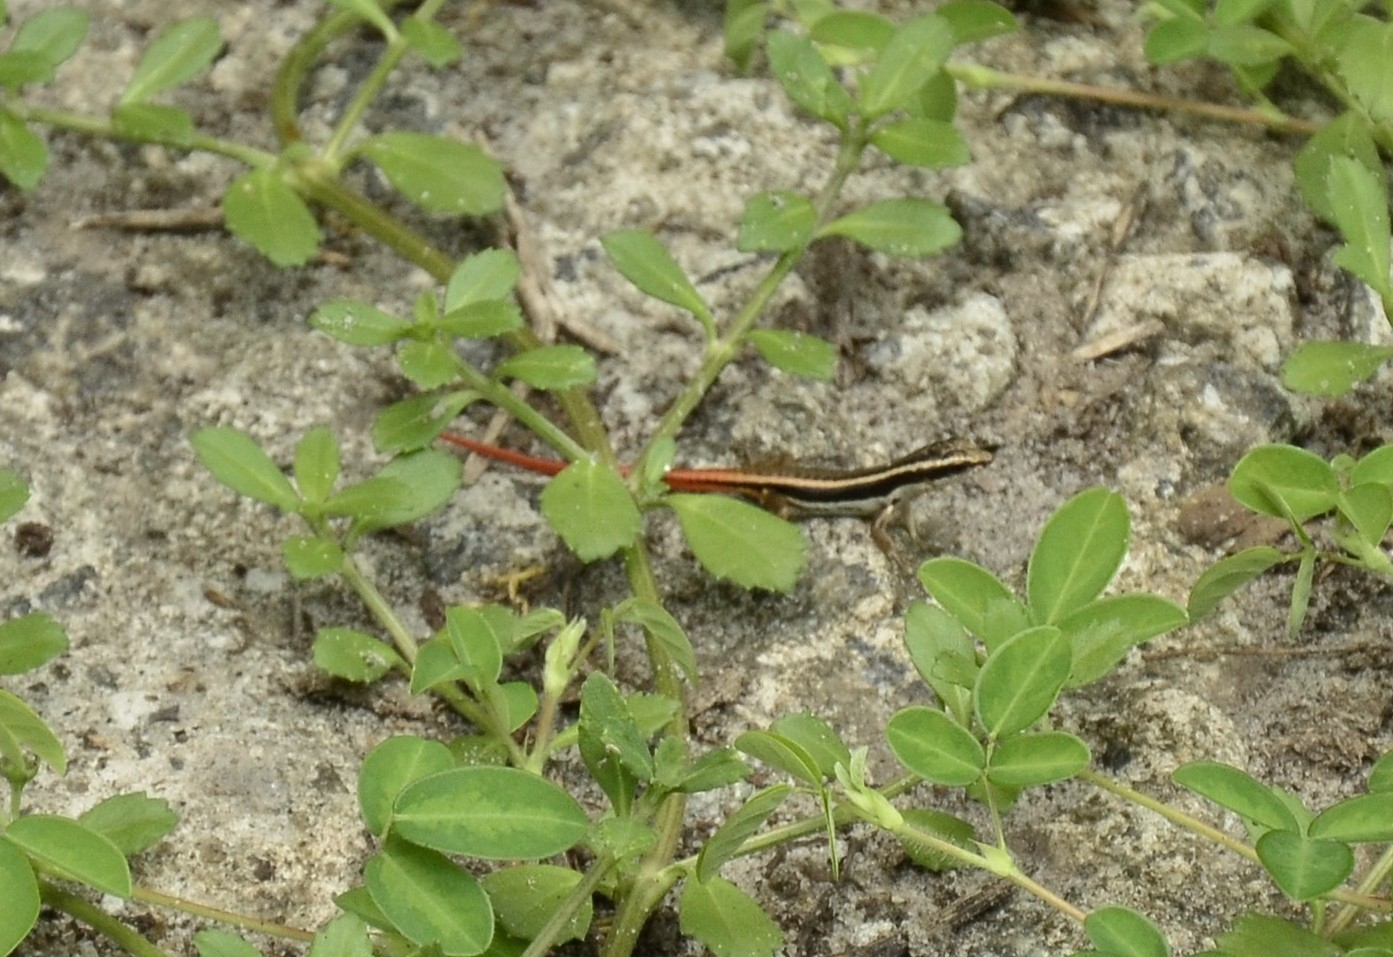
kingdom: Animalia
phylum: Chordata
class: Squamata
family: Scincidae
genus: Sphenomorphus
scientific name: Sphenomorphus dussumieri
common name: Dussumier's forest skink
